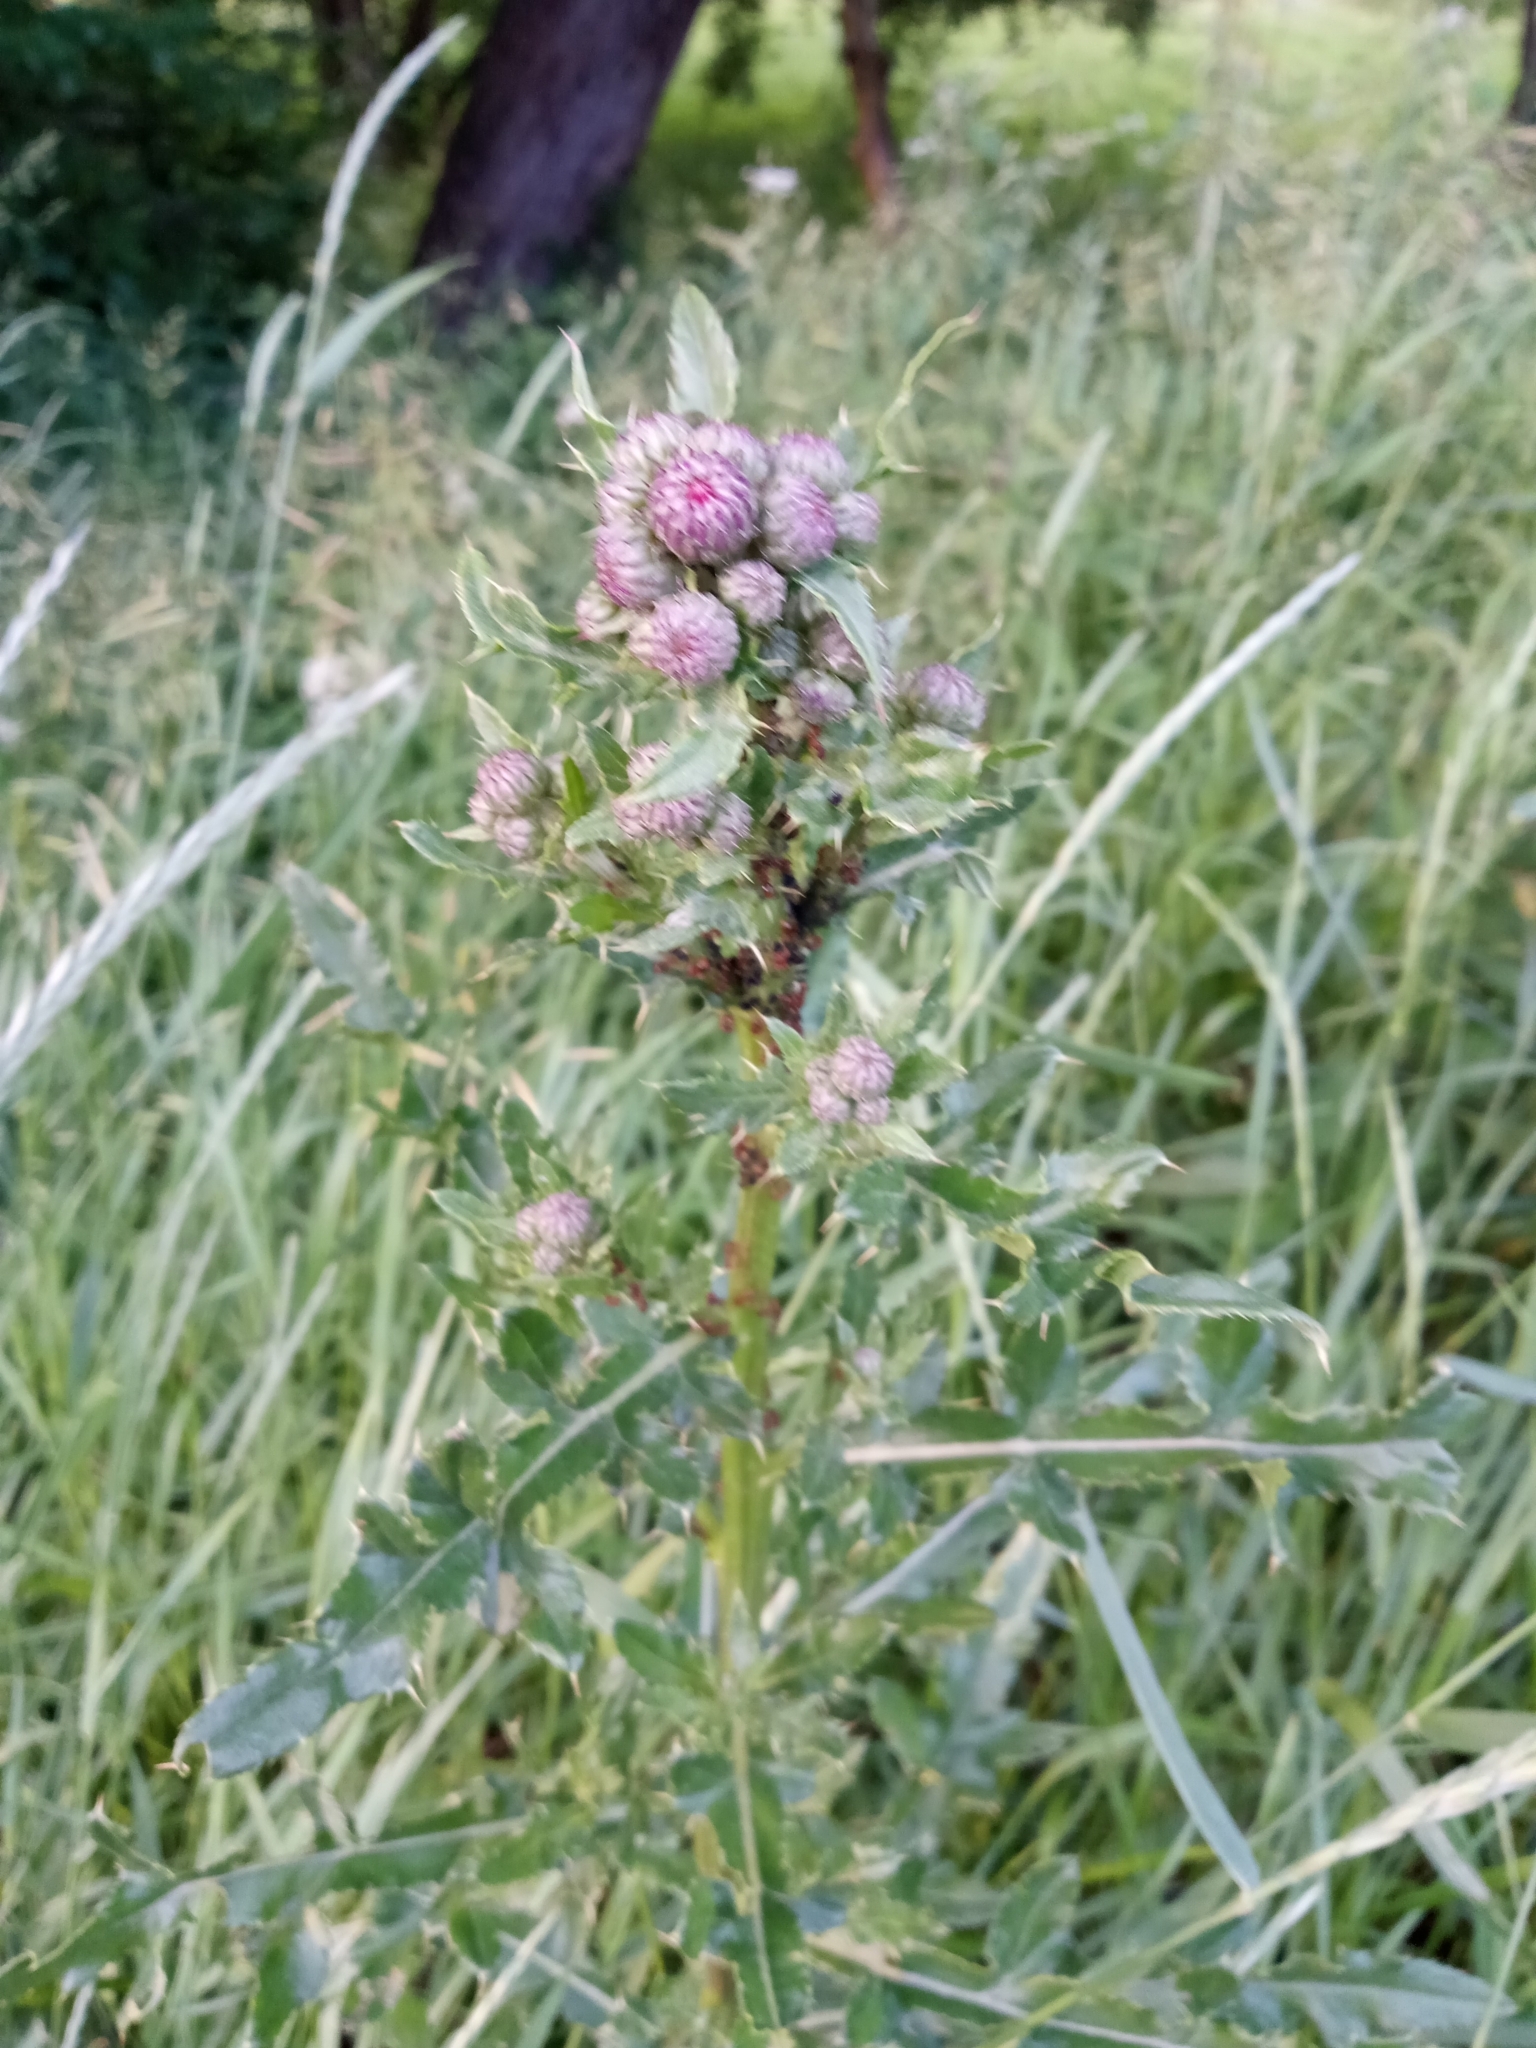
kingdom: Plantae
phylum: Tracheophyta
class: Magnoliopsida
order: Asterales
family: Asteraceae
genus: Cirsium
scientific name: Cirsium arvense
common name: Creeping thistle
